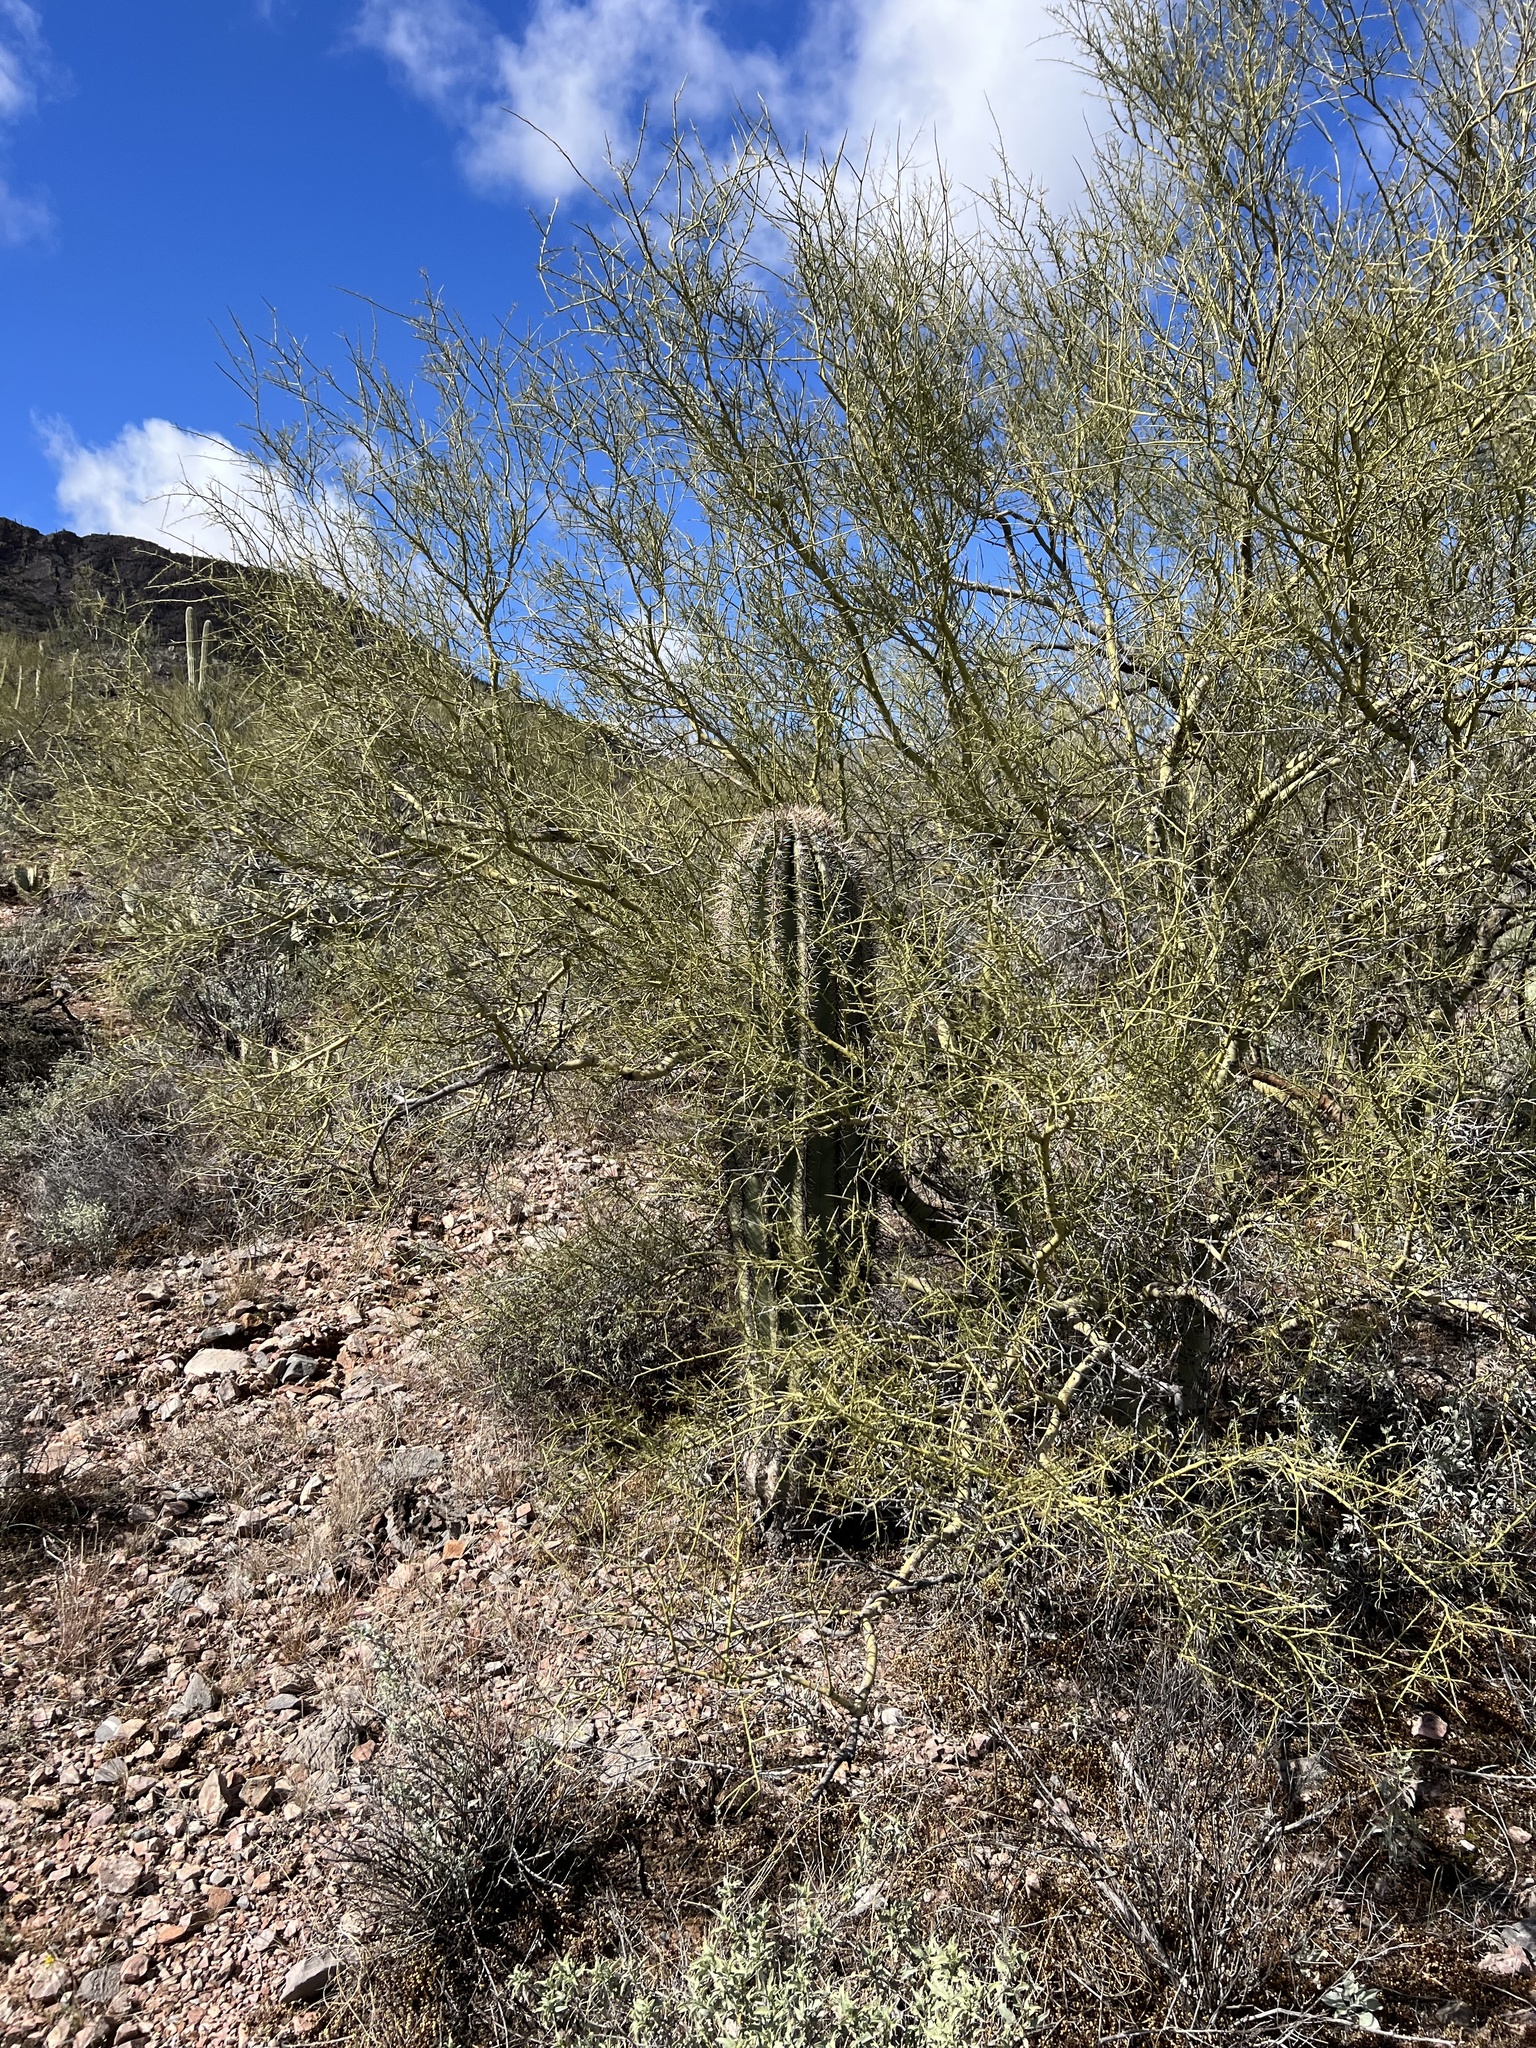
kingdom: Plantae
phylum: Tracheophyta
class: Magnoliopsida
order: Fabales
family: Fabaceae
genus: Parkinsonia
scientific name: Parkinsonia microphylla
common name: Yellow paloverde
